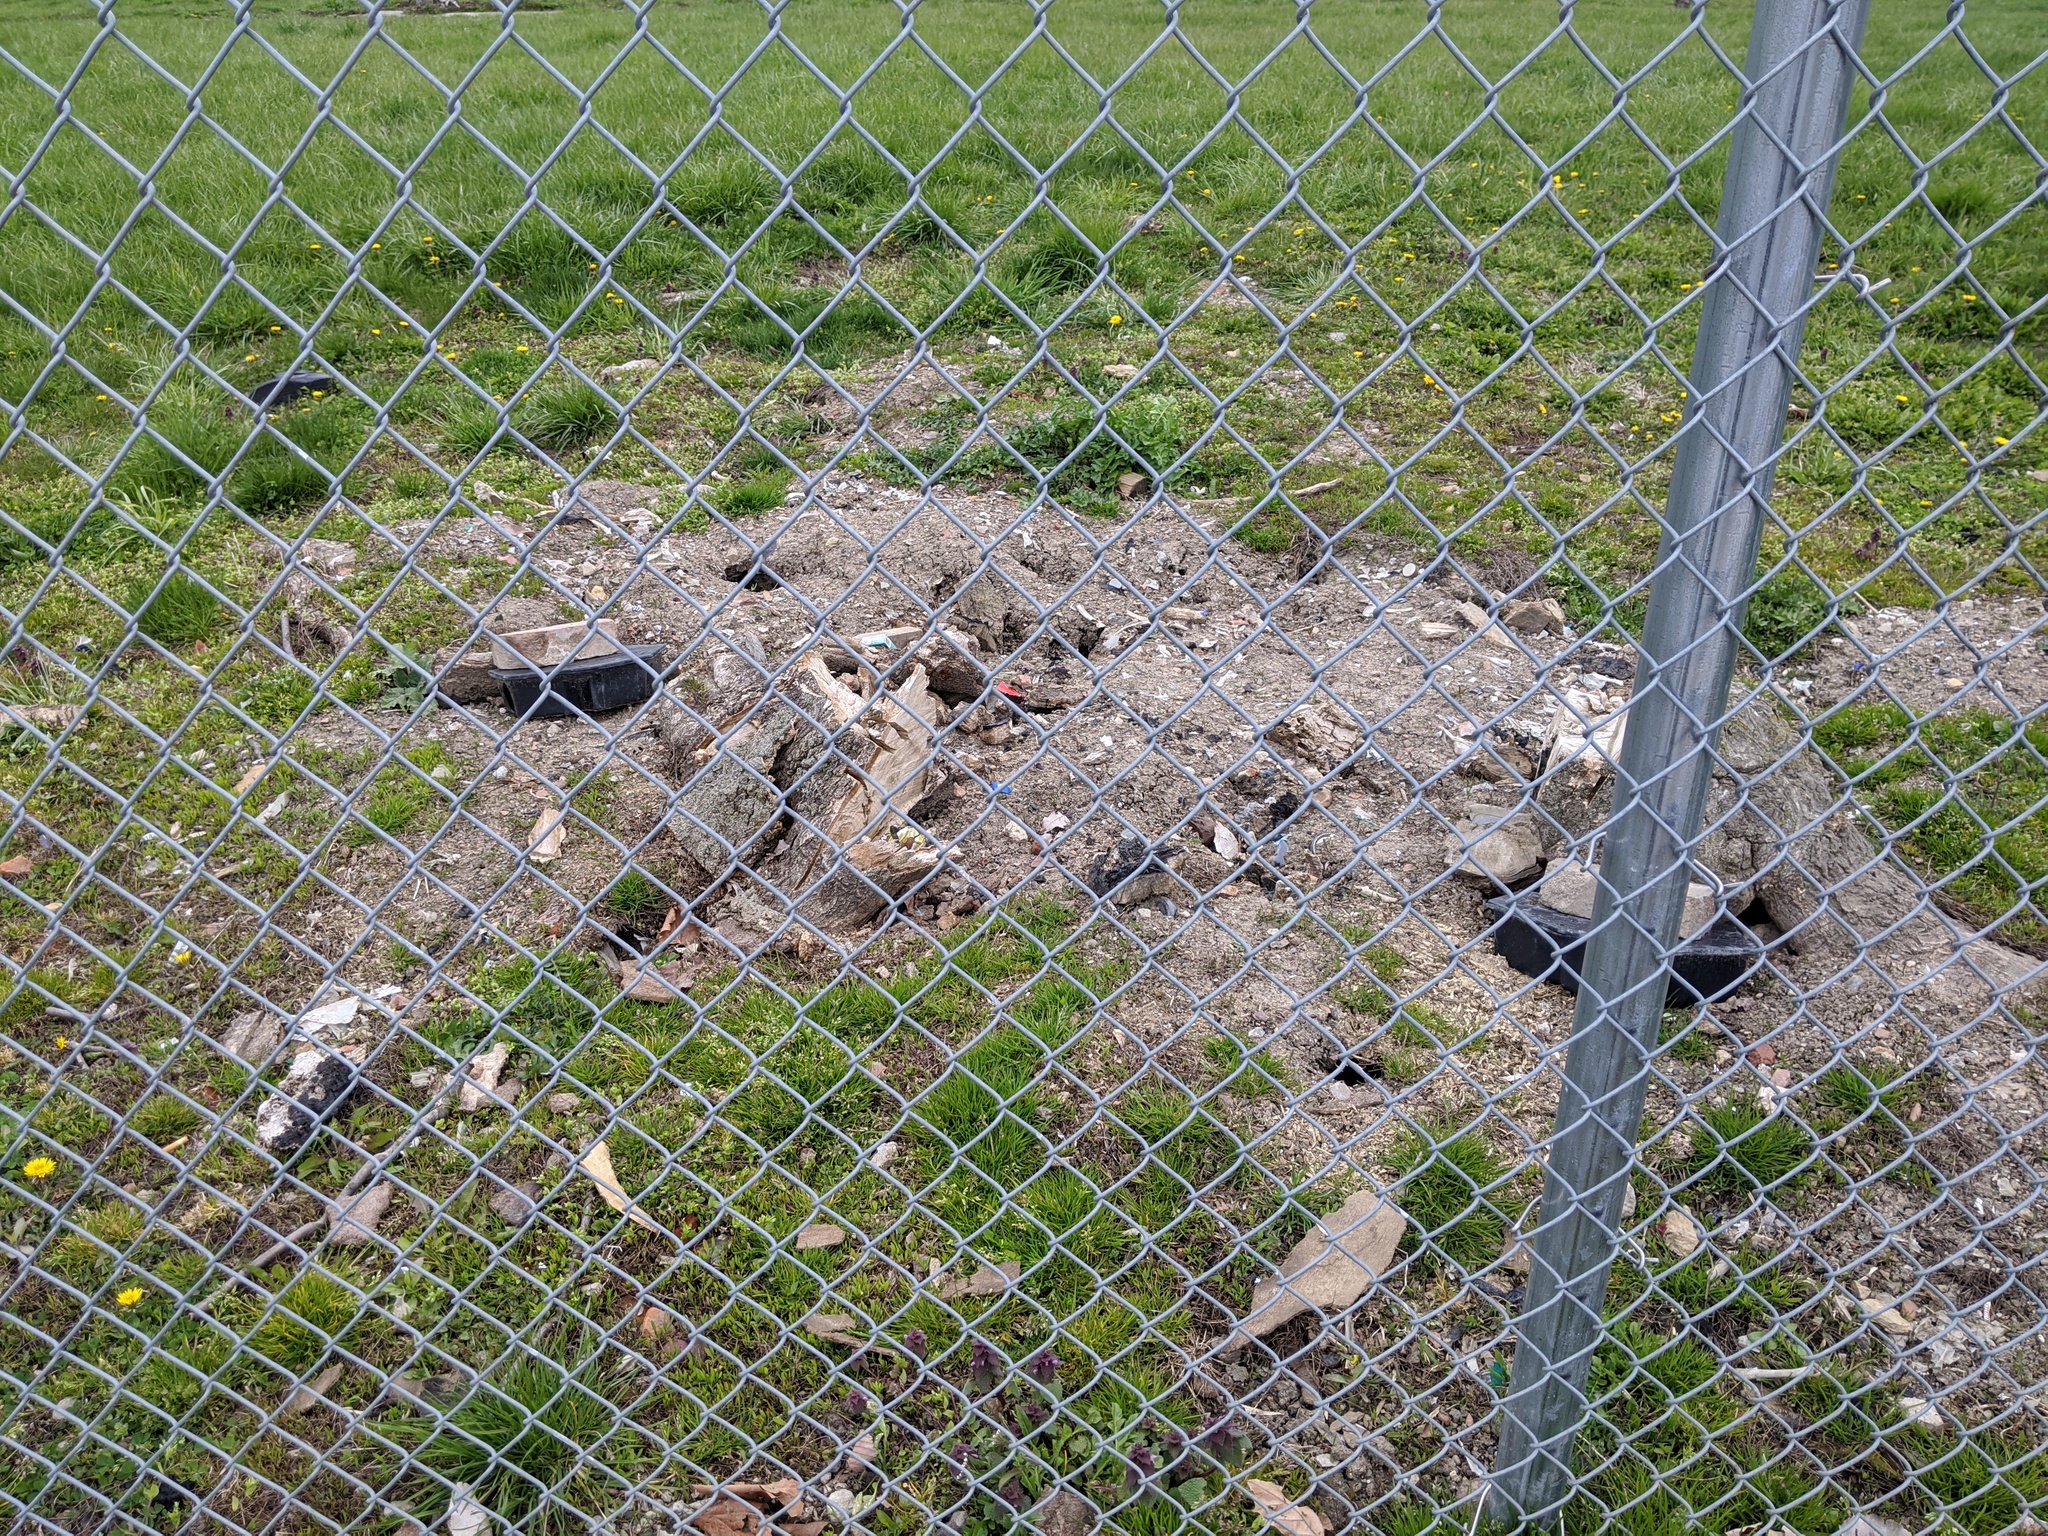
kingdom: Animalia
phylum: Chordata
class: Mammalia
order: Rodentia
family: Muridae
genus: Rattus
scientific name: Rattus norvegicus
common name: Brown rat
